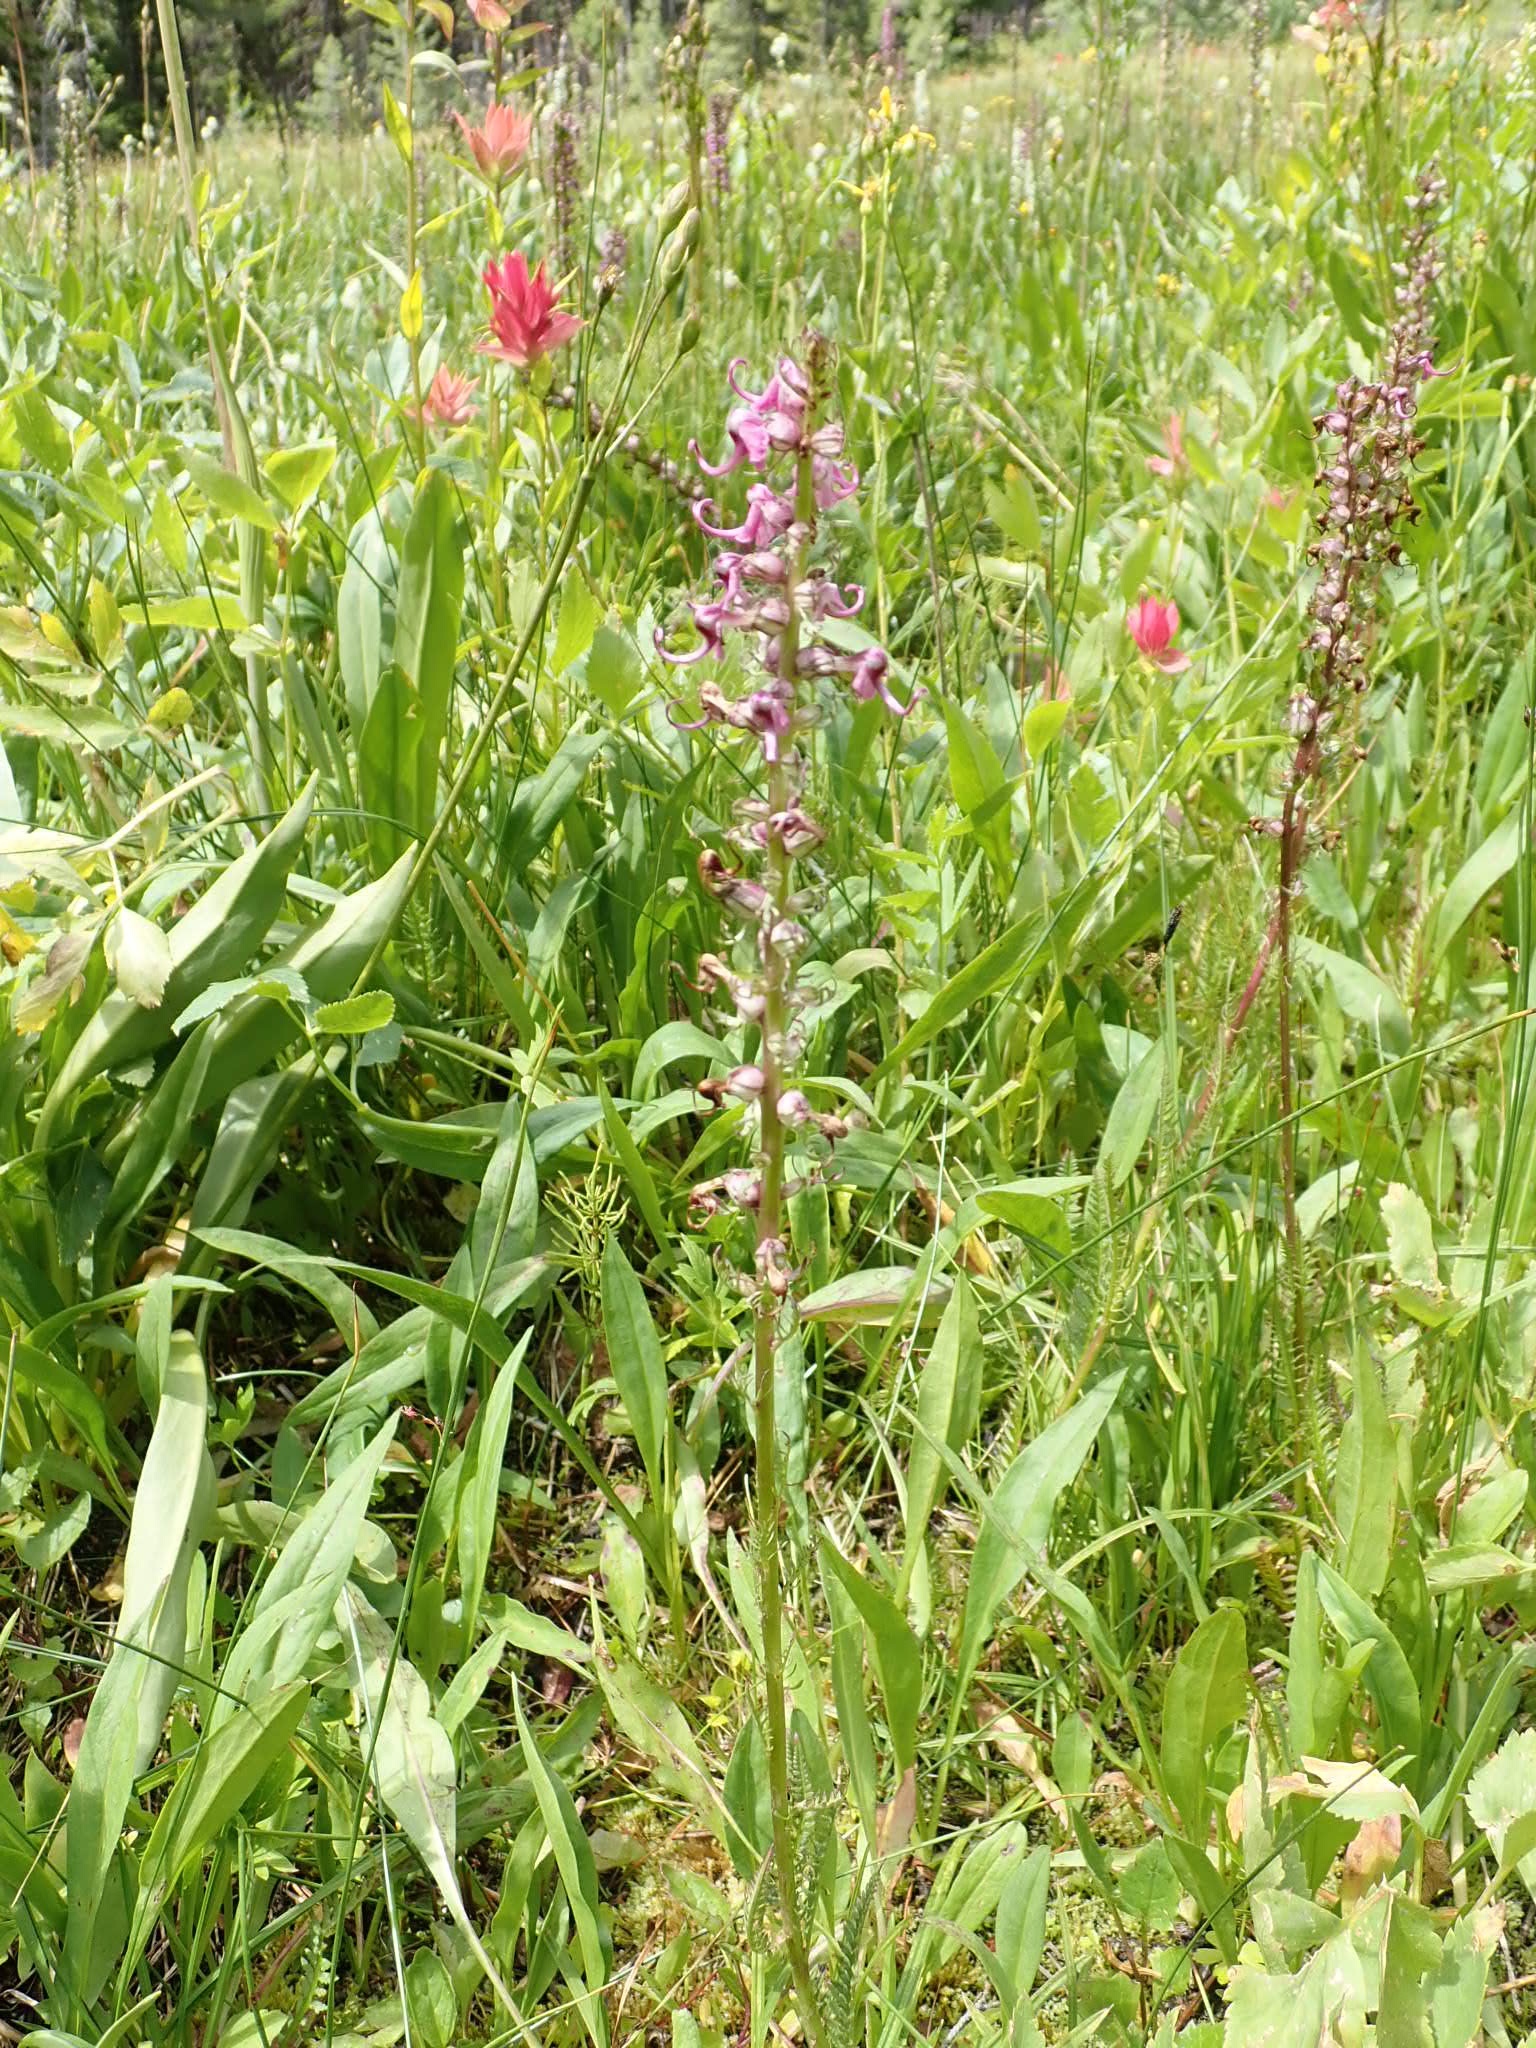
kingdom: Plantae
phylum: Tracheophyta
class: Magnoliopsida
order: Lamiales
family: Orobanchaceae
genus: Pedicularis
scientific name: Pedicularis groenlandica
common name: Elephant's-head
